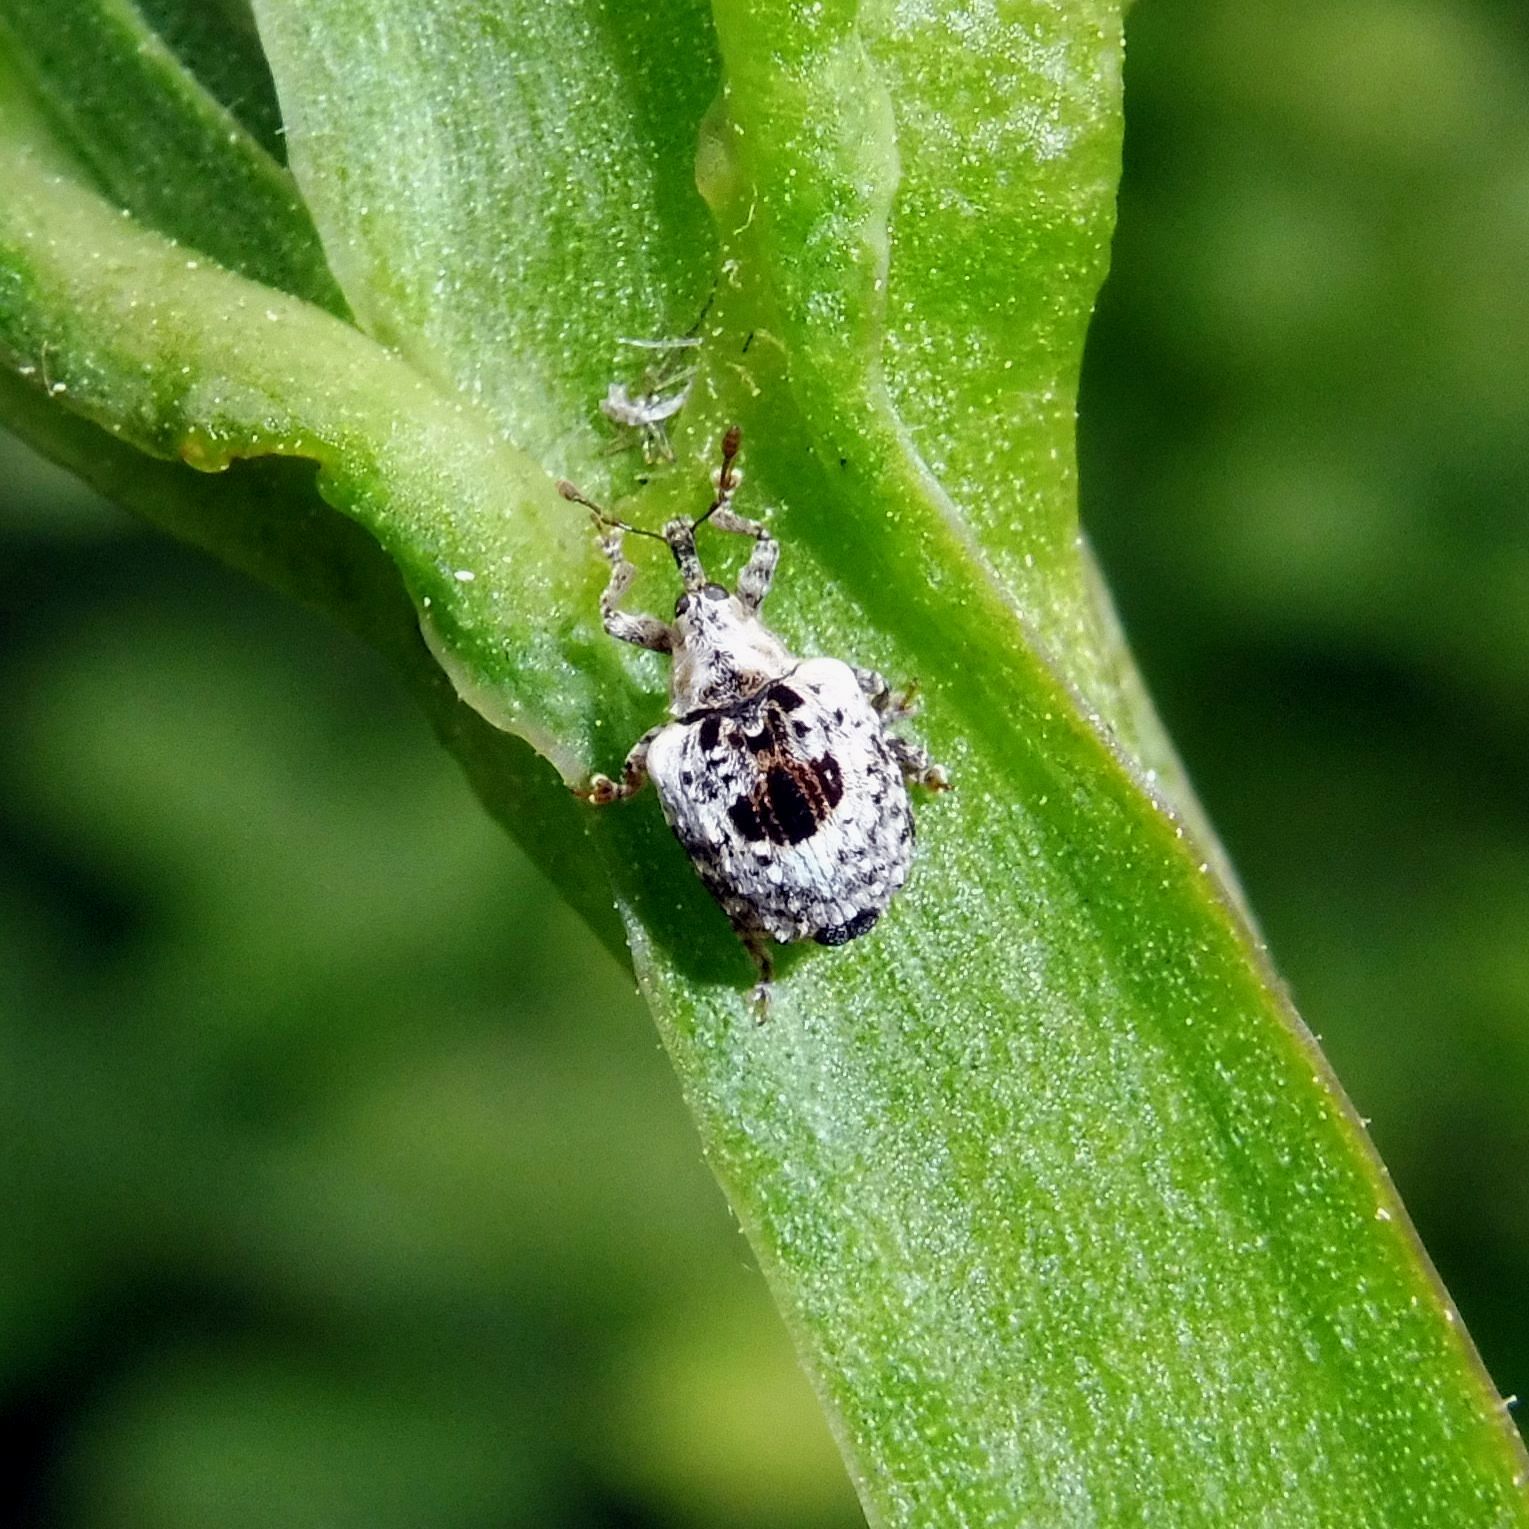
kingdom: Animalia
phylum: Arthropoda
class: Insecta
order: Coleoptera
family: Curculionidae
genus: Cionus
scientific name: Cionus alauda
